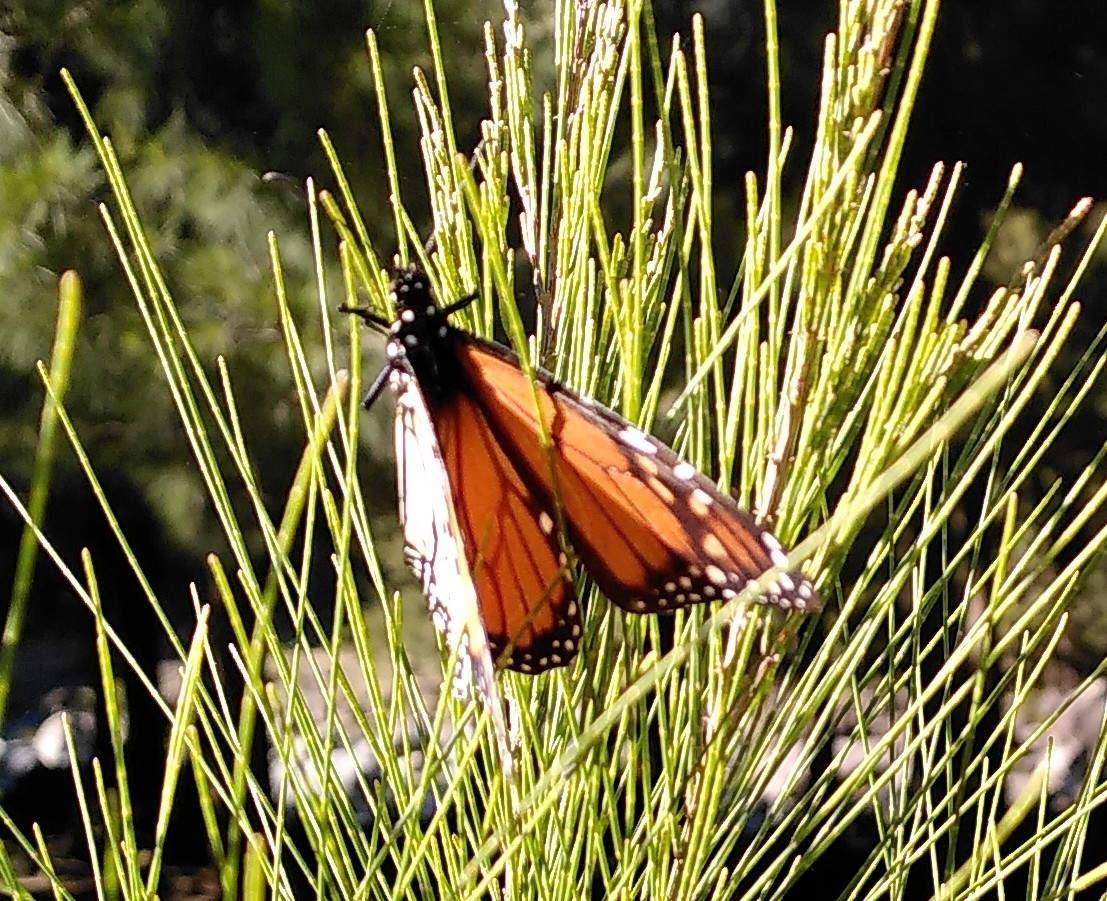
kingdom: Animalia
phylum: Arthropoda
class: Insecta
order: Lepidoptera
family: Nymphalidae
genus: Danaus
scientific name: Danaus plexippus
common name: Monarch
